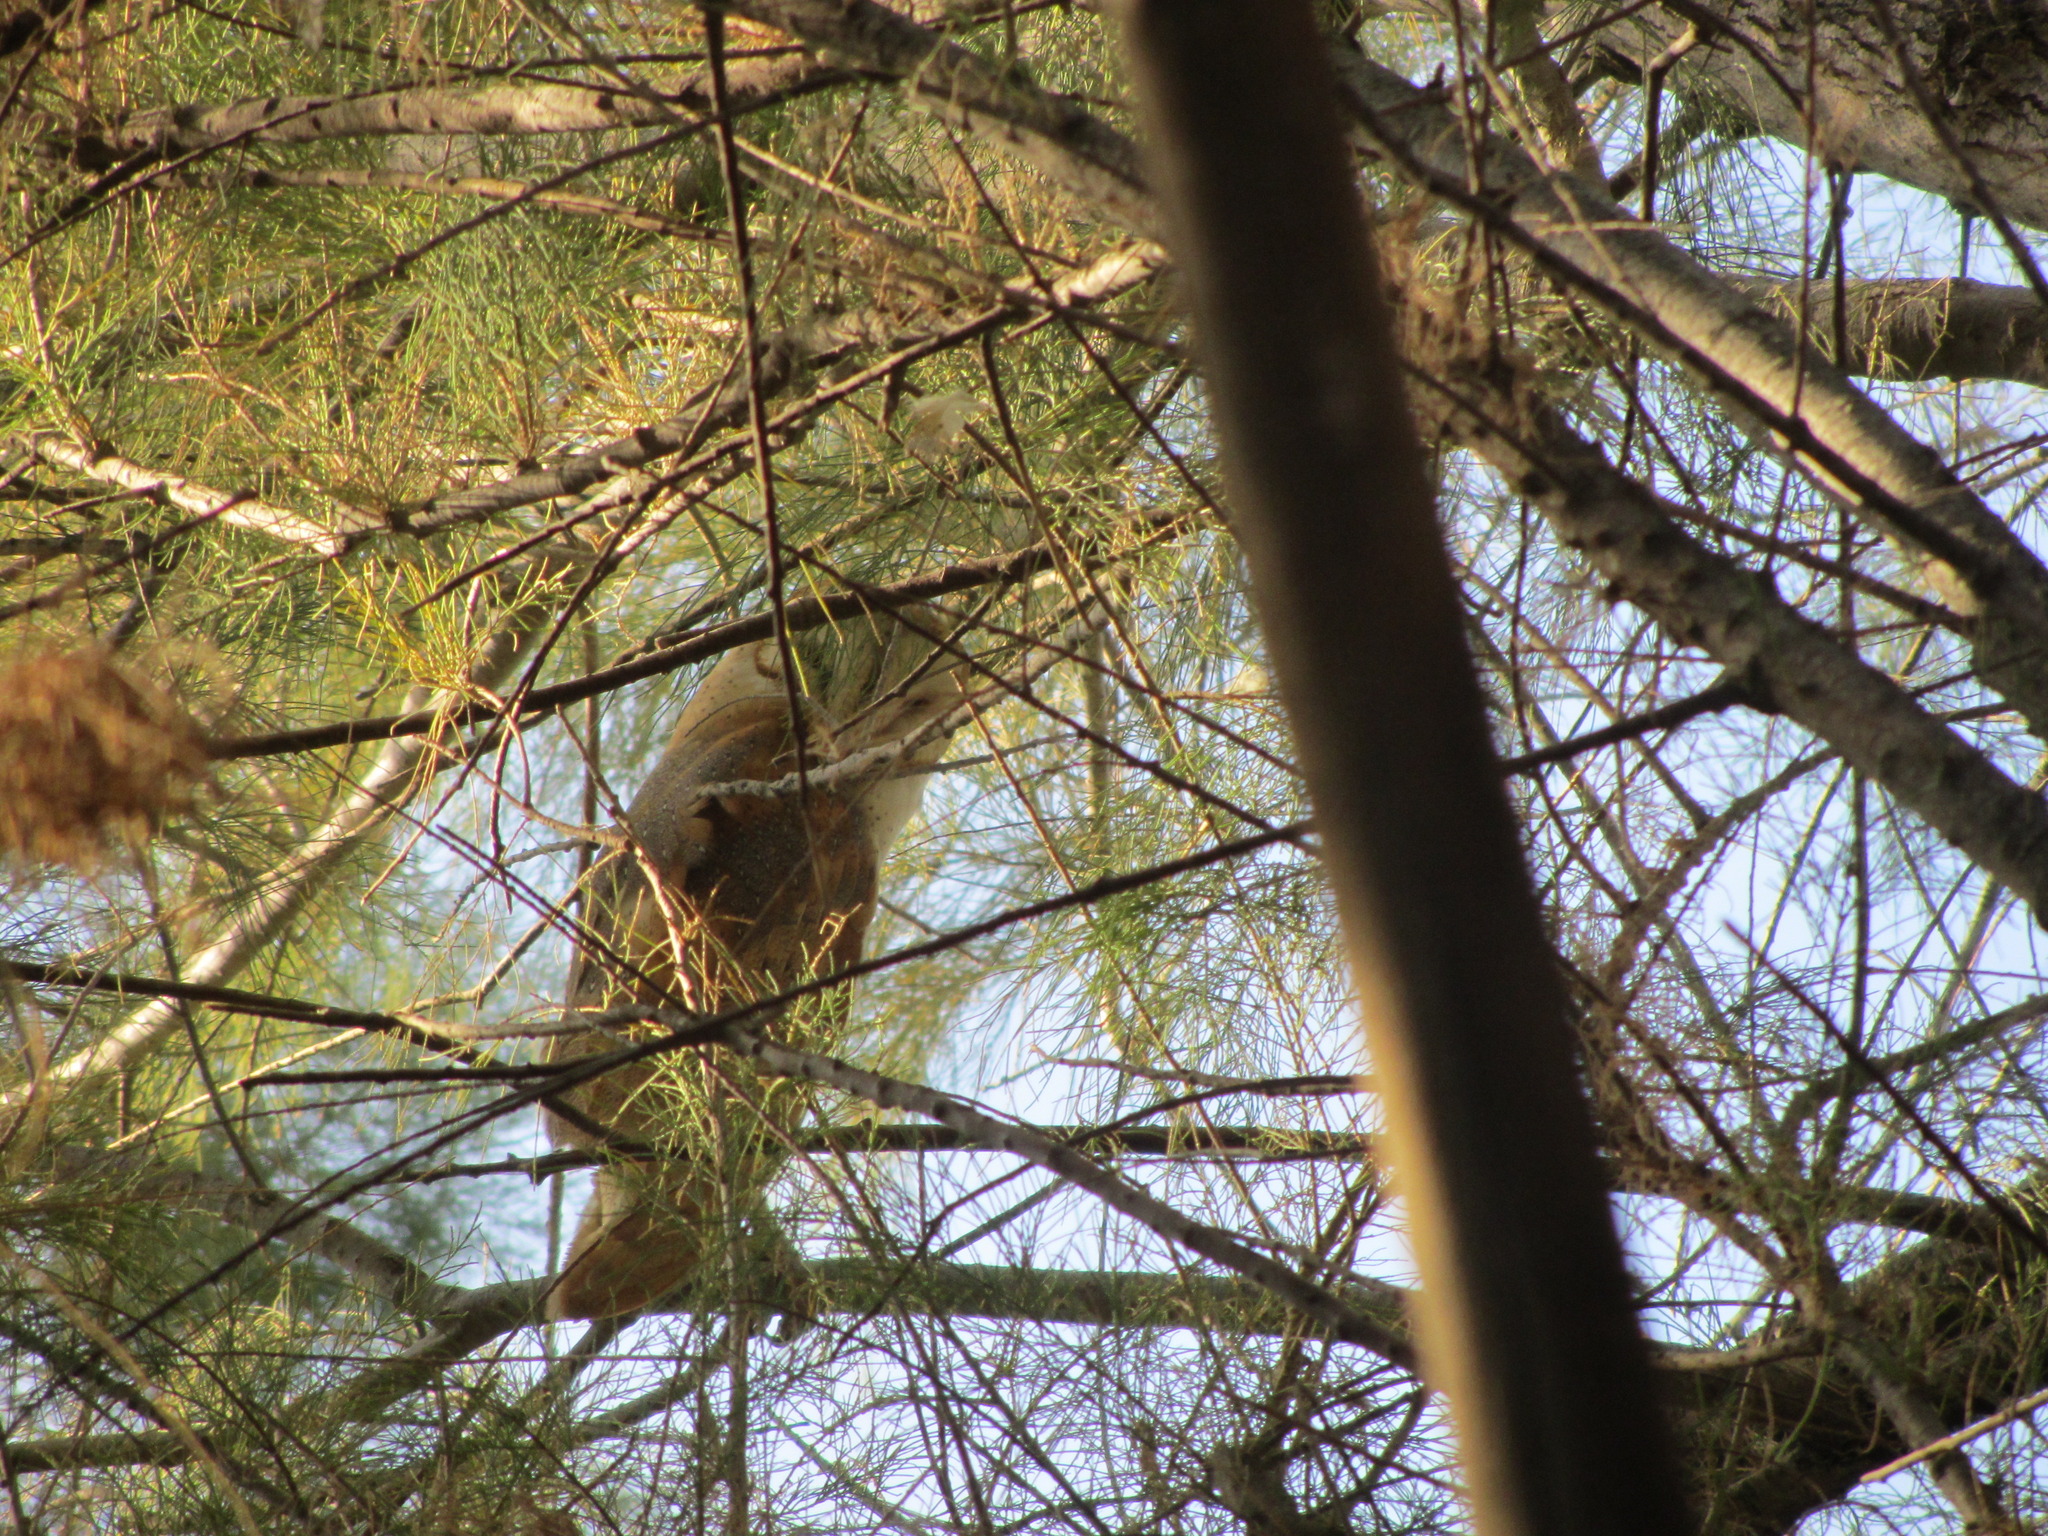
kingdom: Animalia
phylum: Chordata
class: Aves
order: Strigiformes
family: Tytonidae
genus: Tyto
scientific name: Tyto alba
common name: Barn owl
